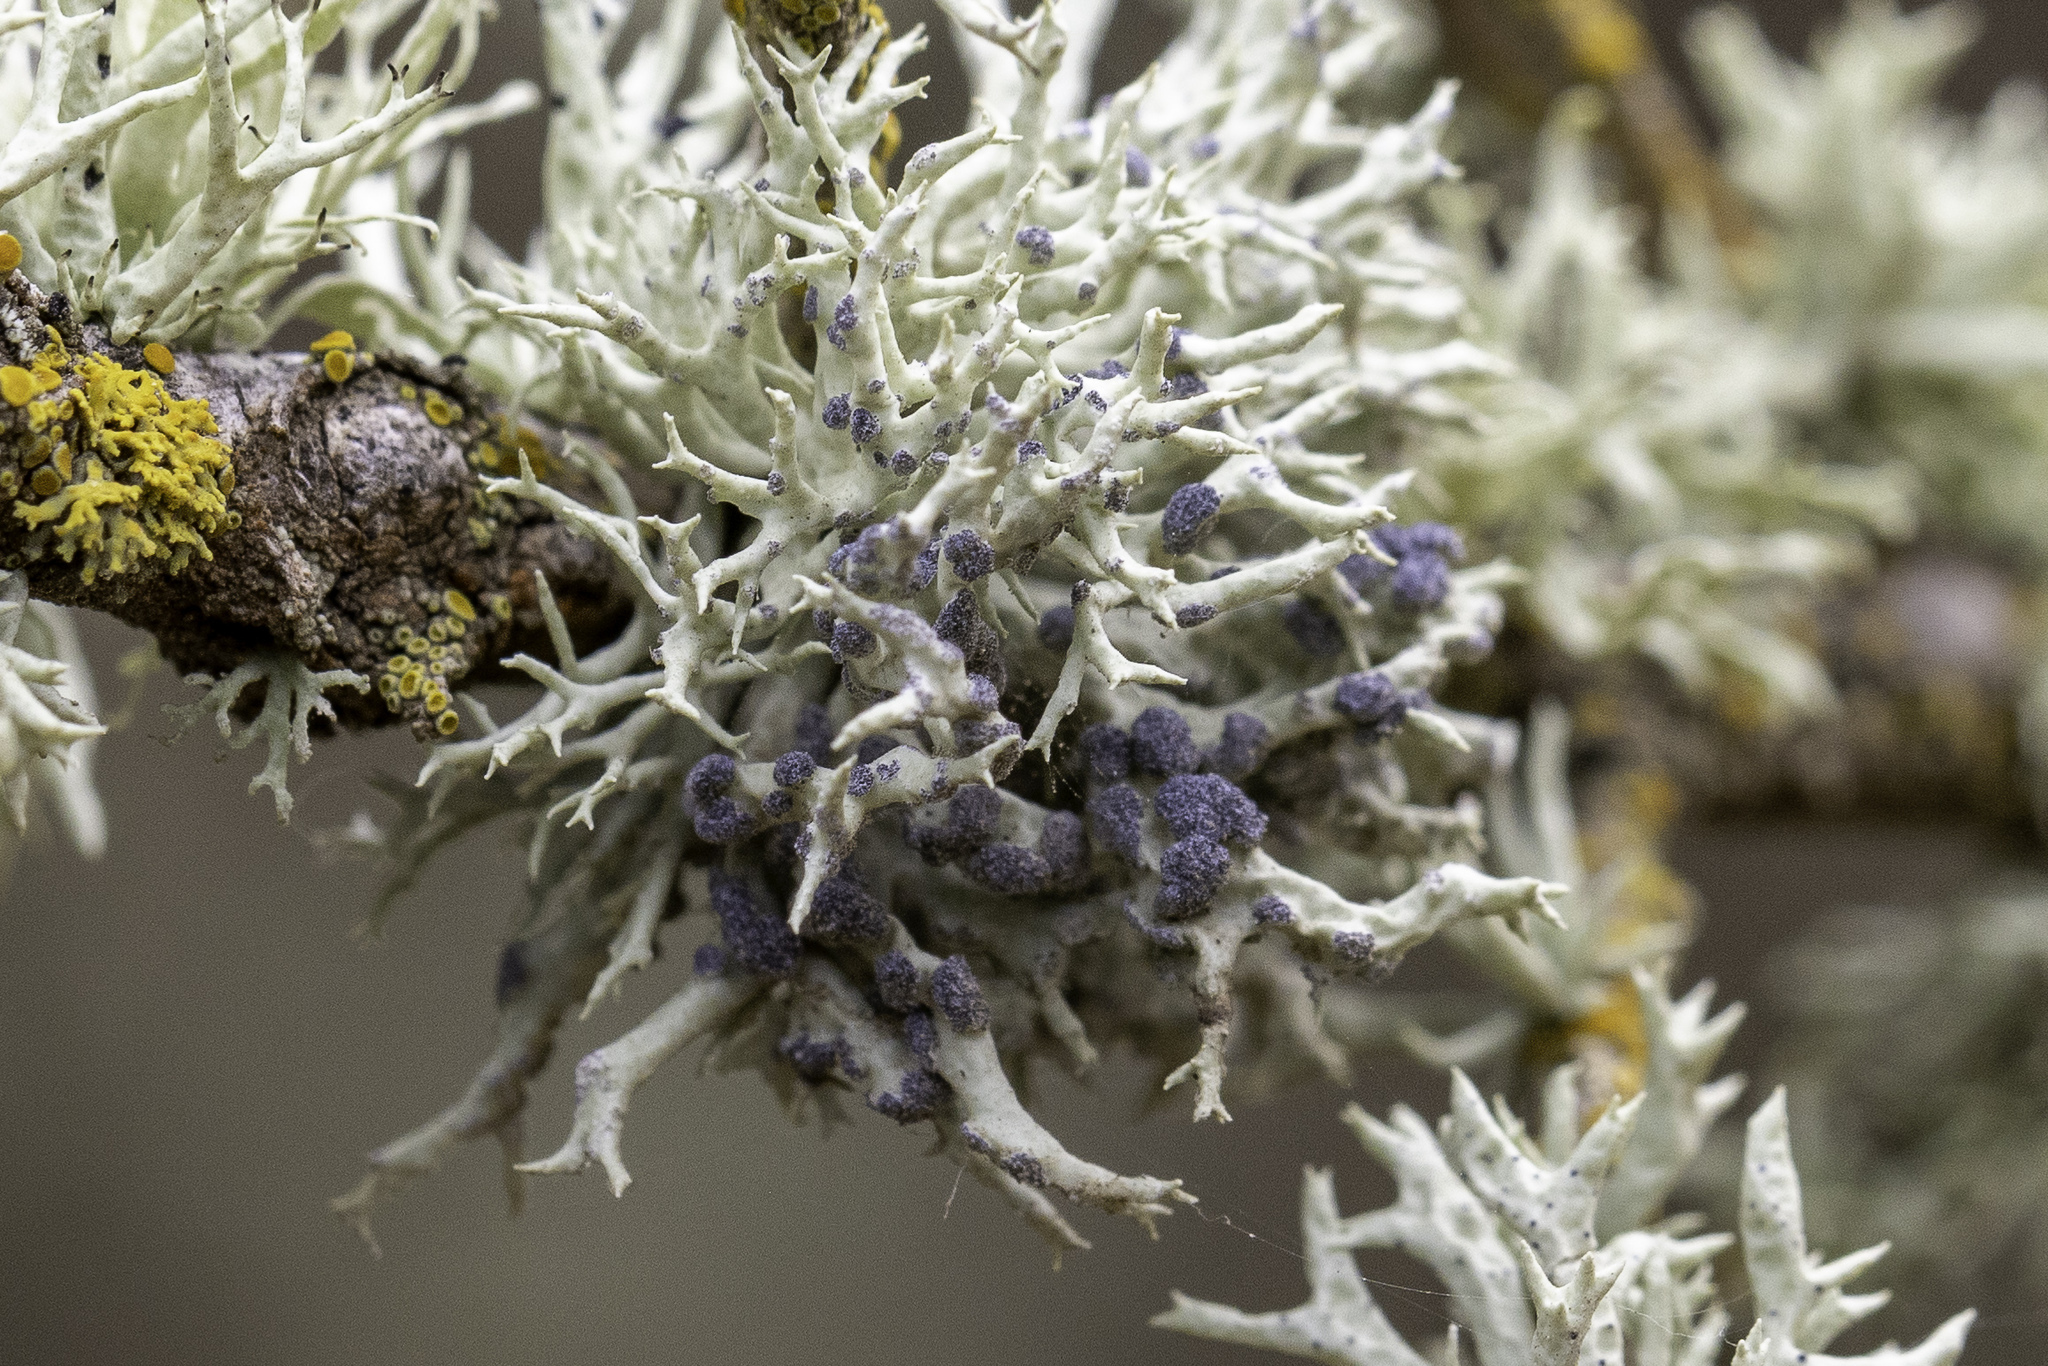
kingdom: Fungi
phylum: Ascomycota
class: Lecanoromycetes
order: Lecanorales
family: Ramalinaceae
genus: Niebla
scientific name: Niebla cephalota
